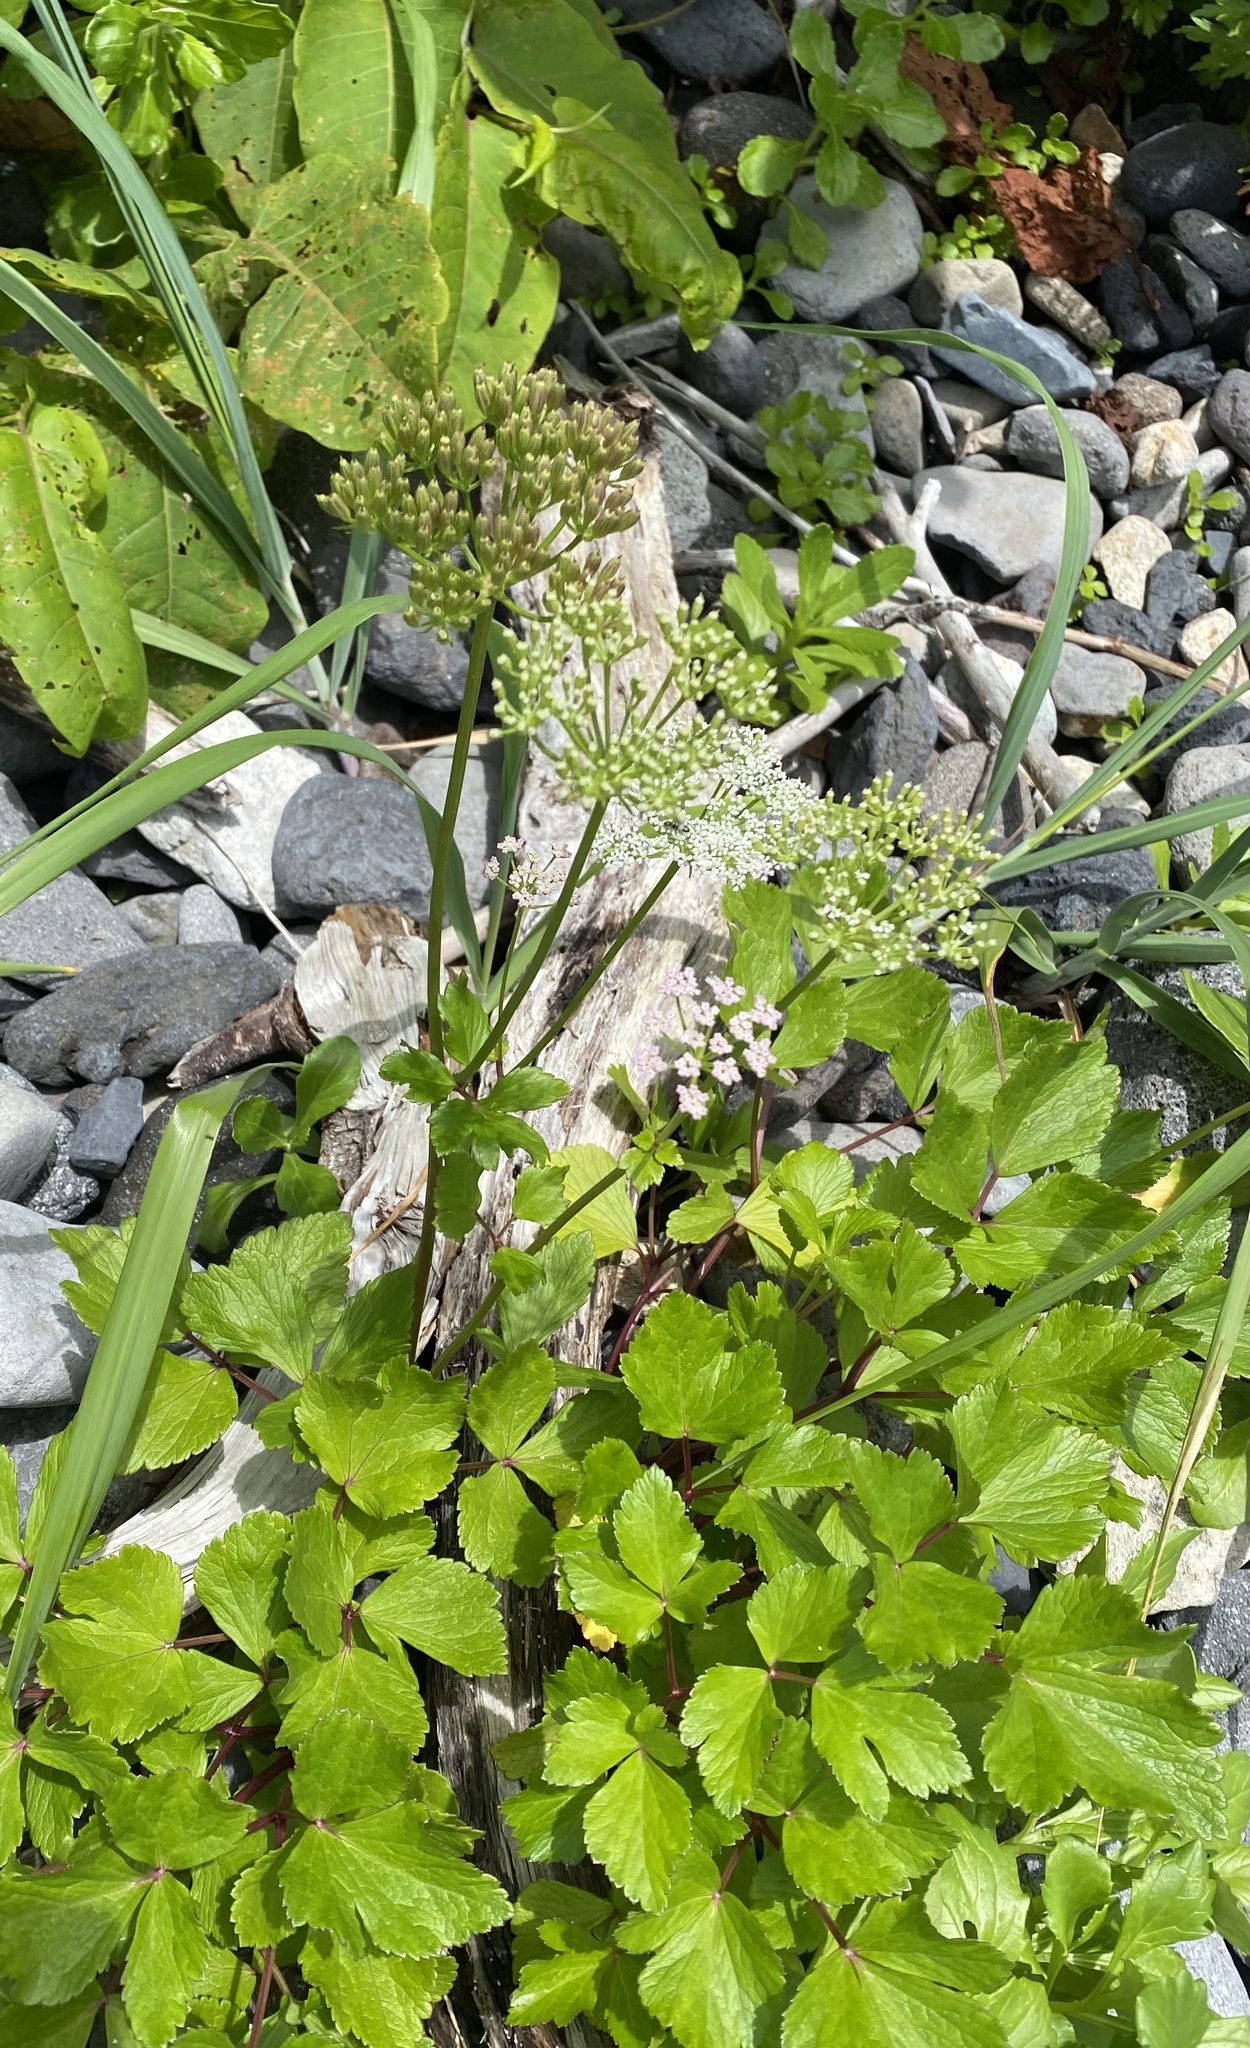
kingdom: Plantae
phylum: Tracheophyta
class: Magnoliopsida
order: Apiales
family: Apiaceae
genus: Ligusticum
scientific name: Ligusticum scothicum
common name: Beach lovage
